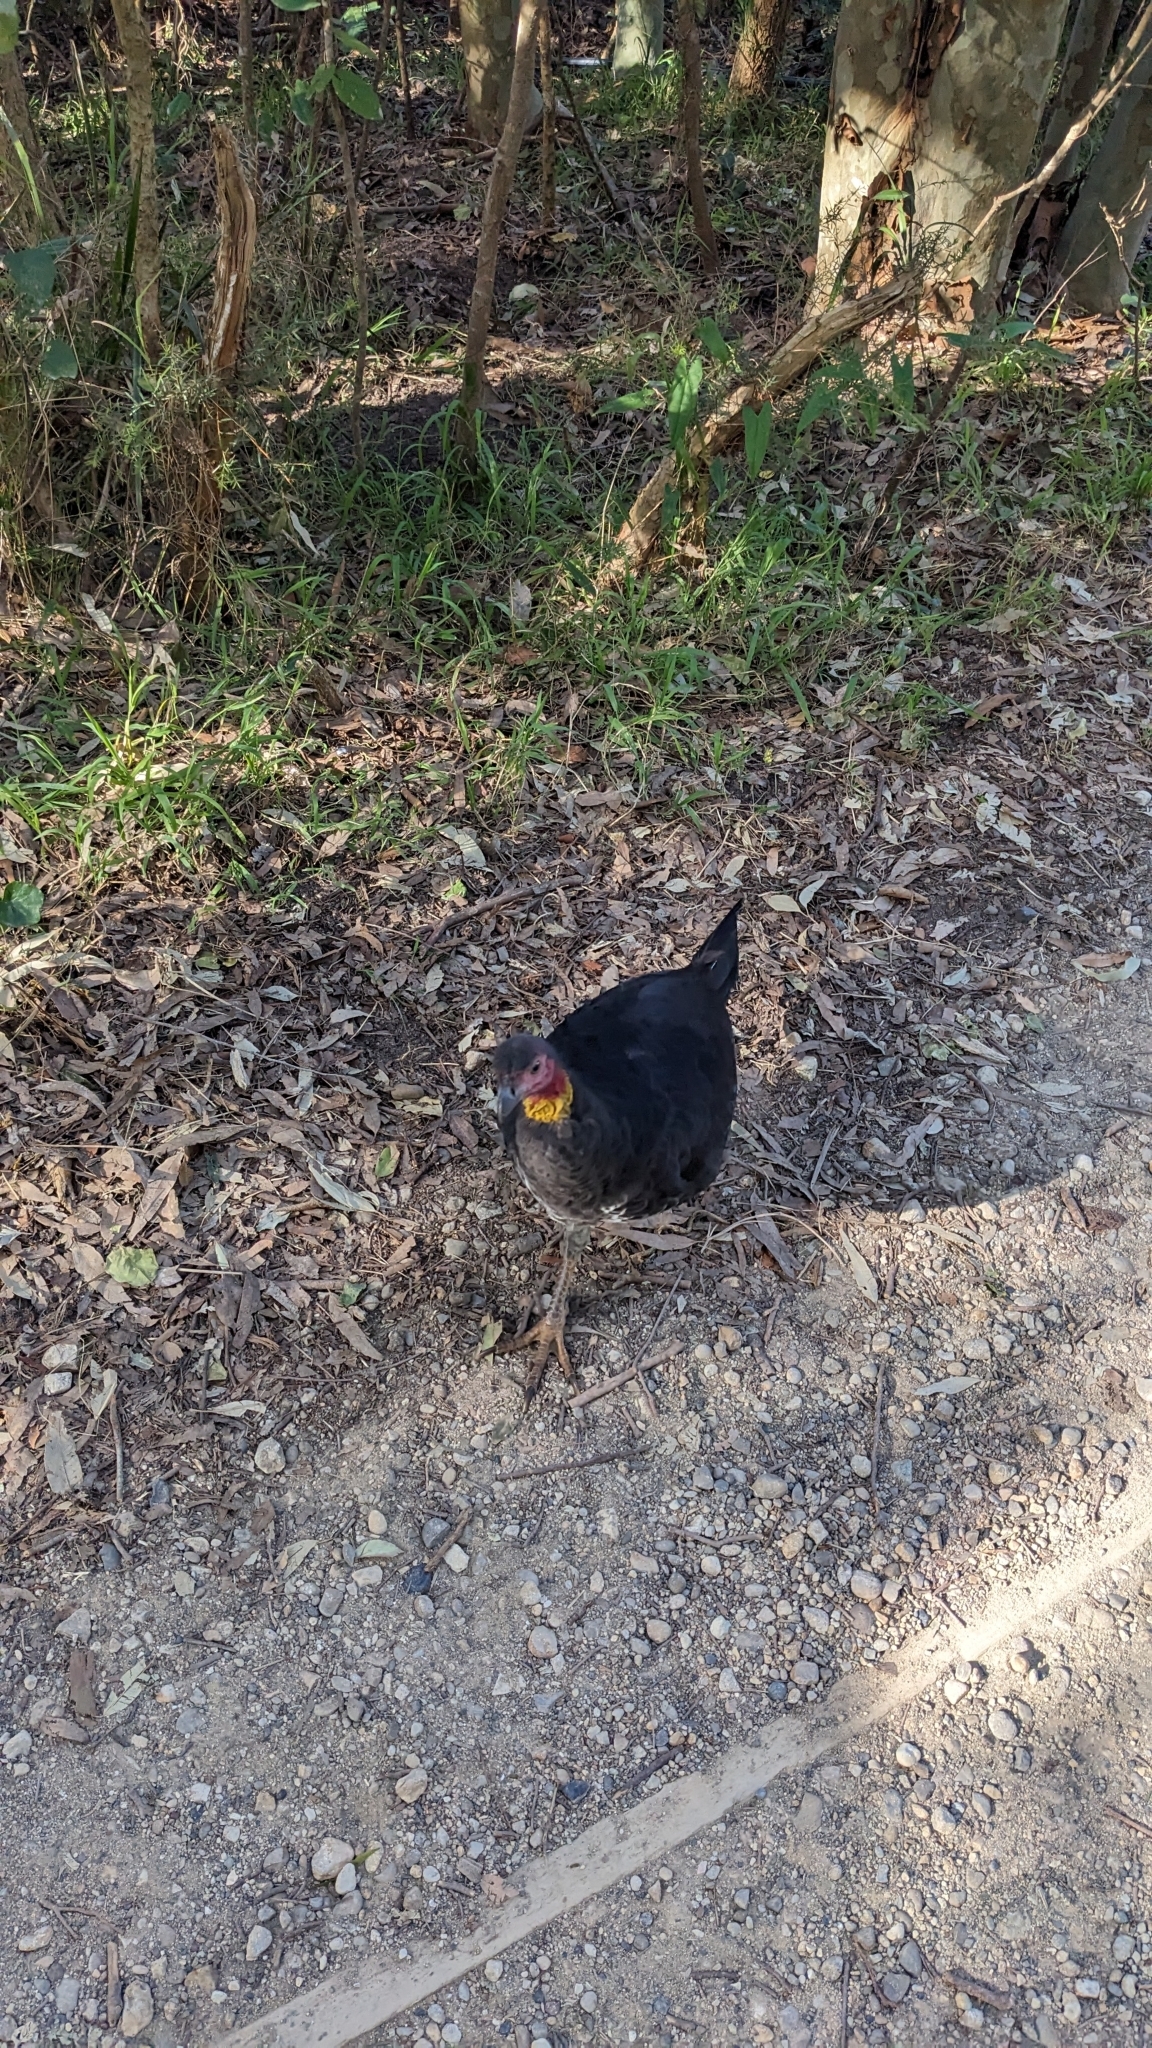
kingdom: Animalia
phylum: Chordata
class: Aves
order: Galliformes
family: Megapodiidae
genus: Alectura
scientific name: Alectura lathami
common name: Australian brushturkey
